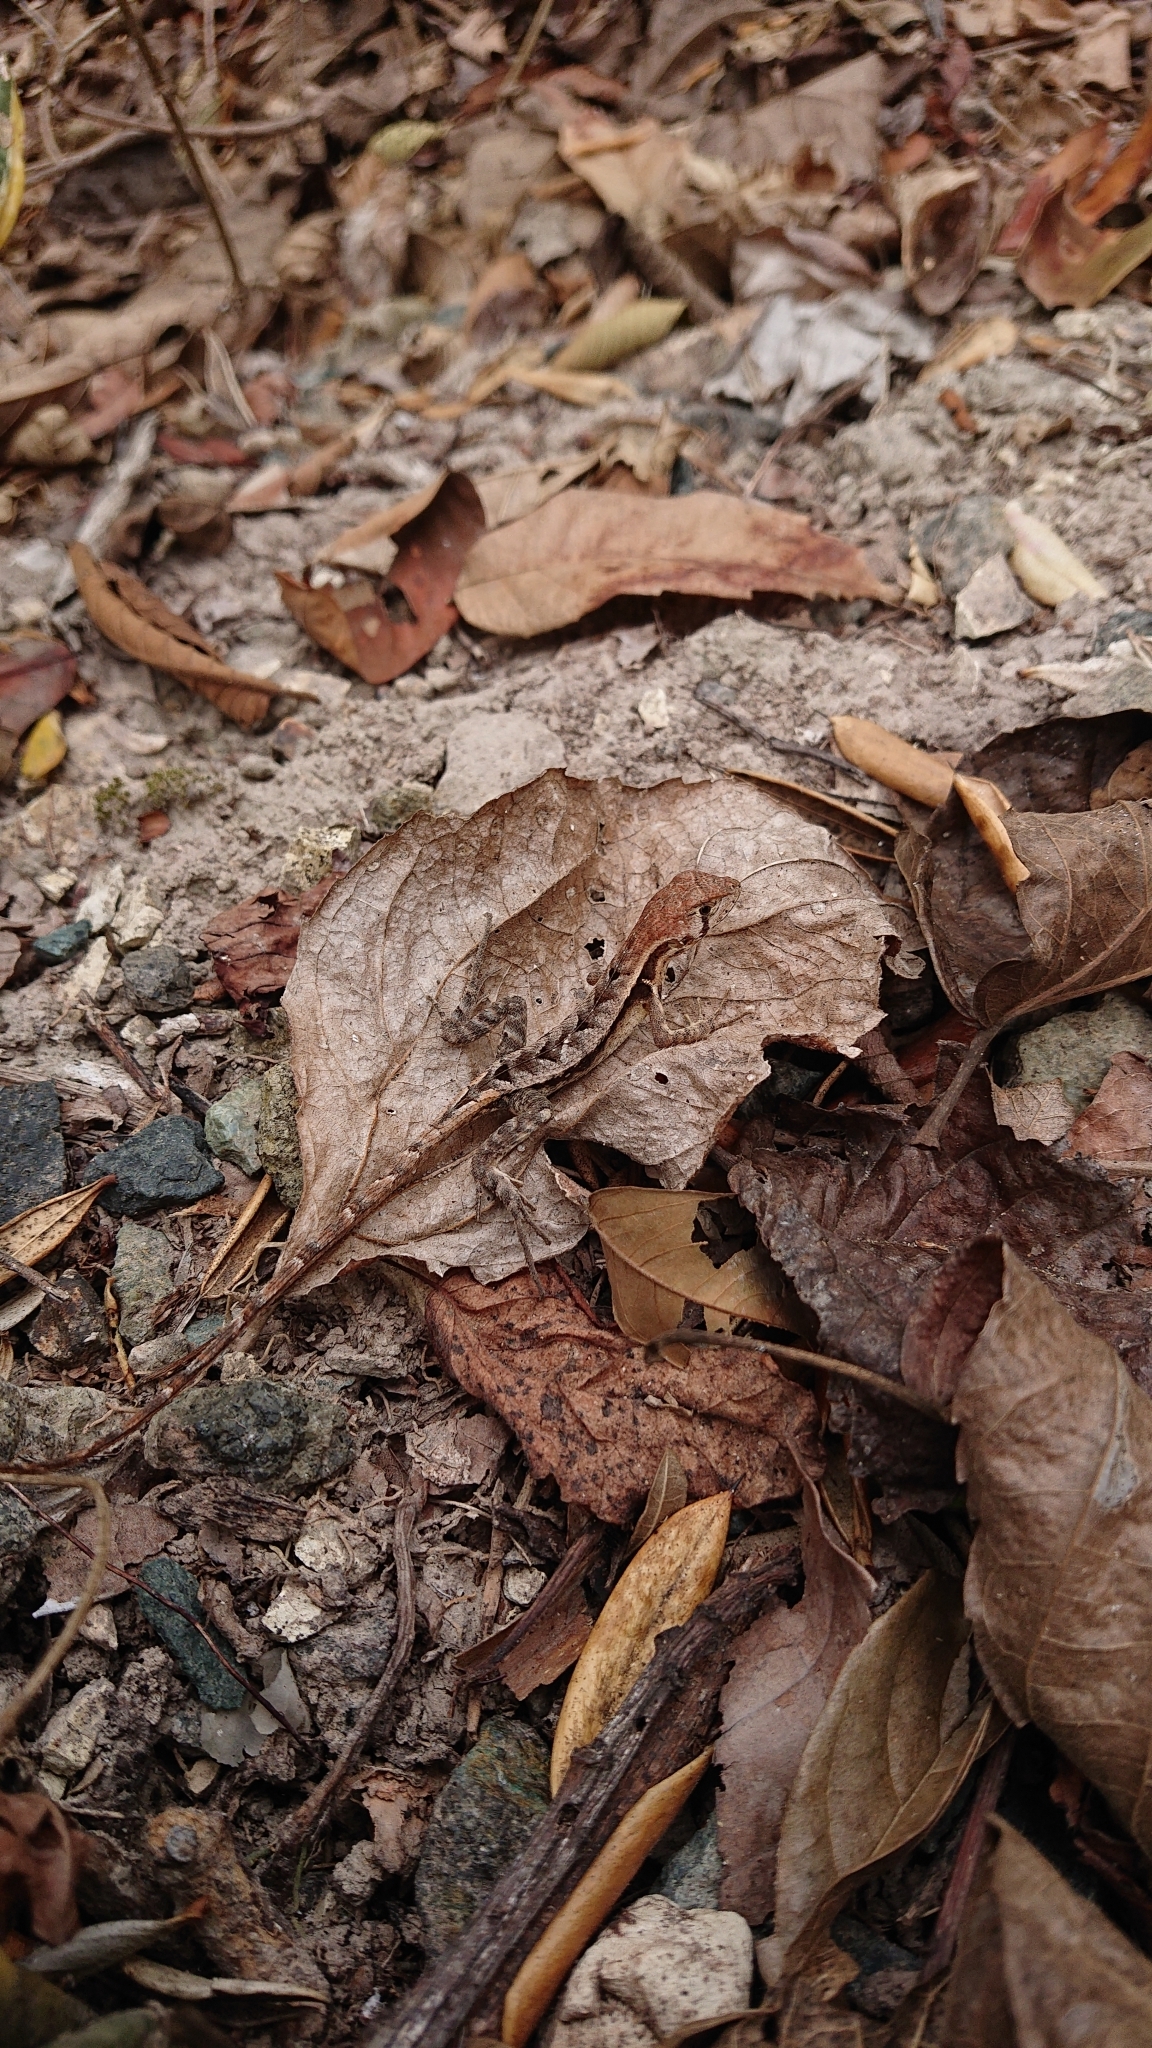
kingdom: Animalia
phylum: Chordata
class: Squamata
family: Tropiduridae
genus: Stenocercus
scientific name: Stenocercus iridescens
